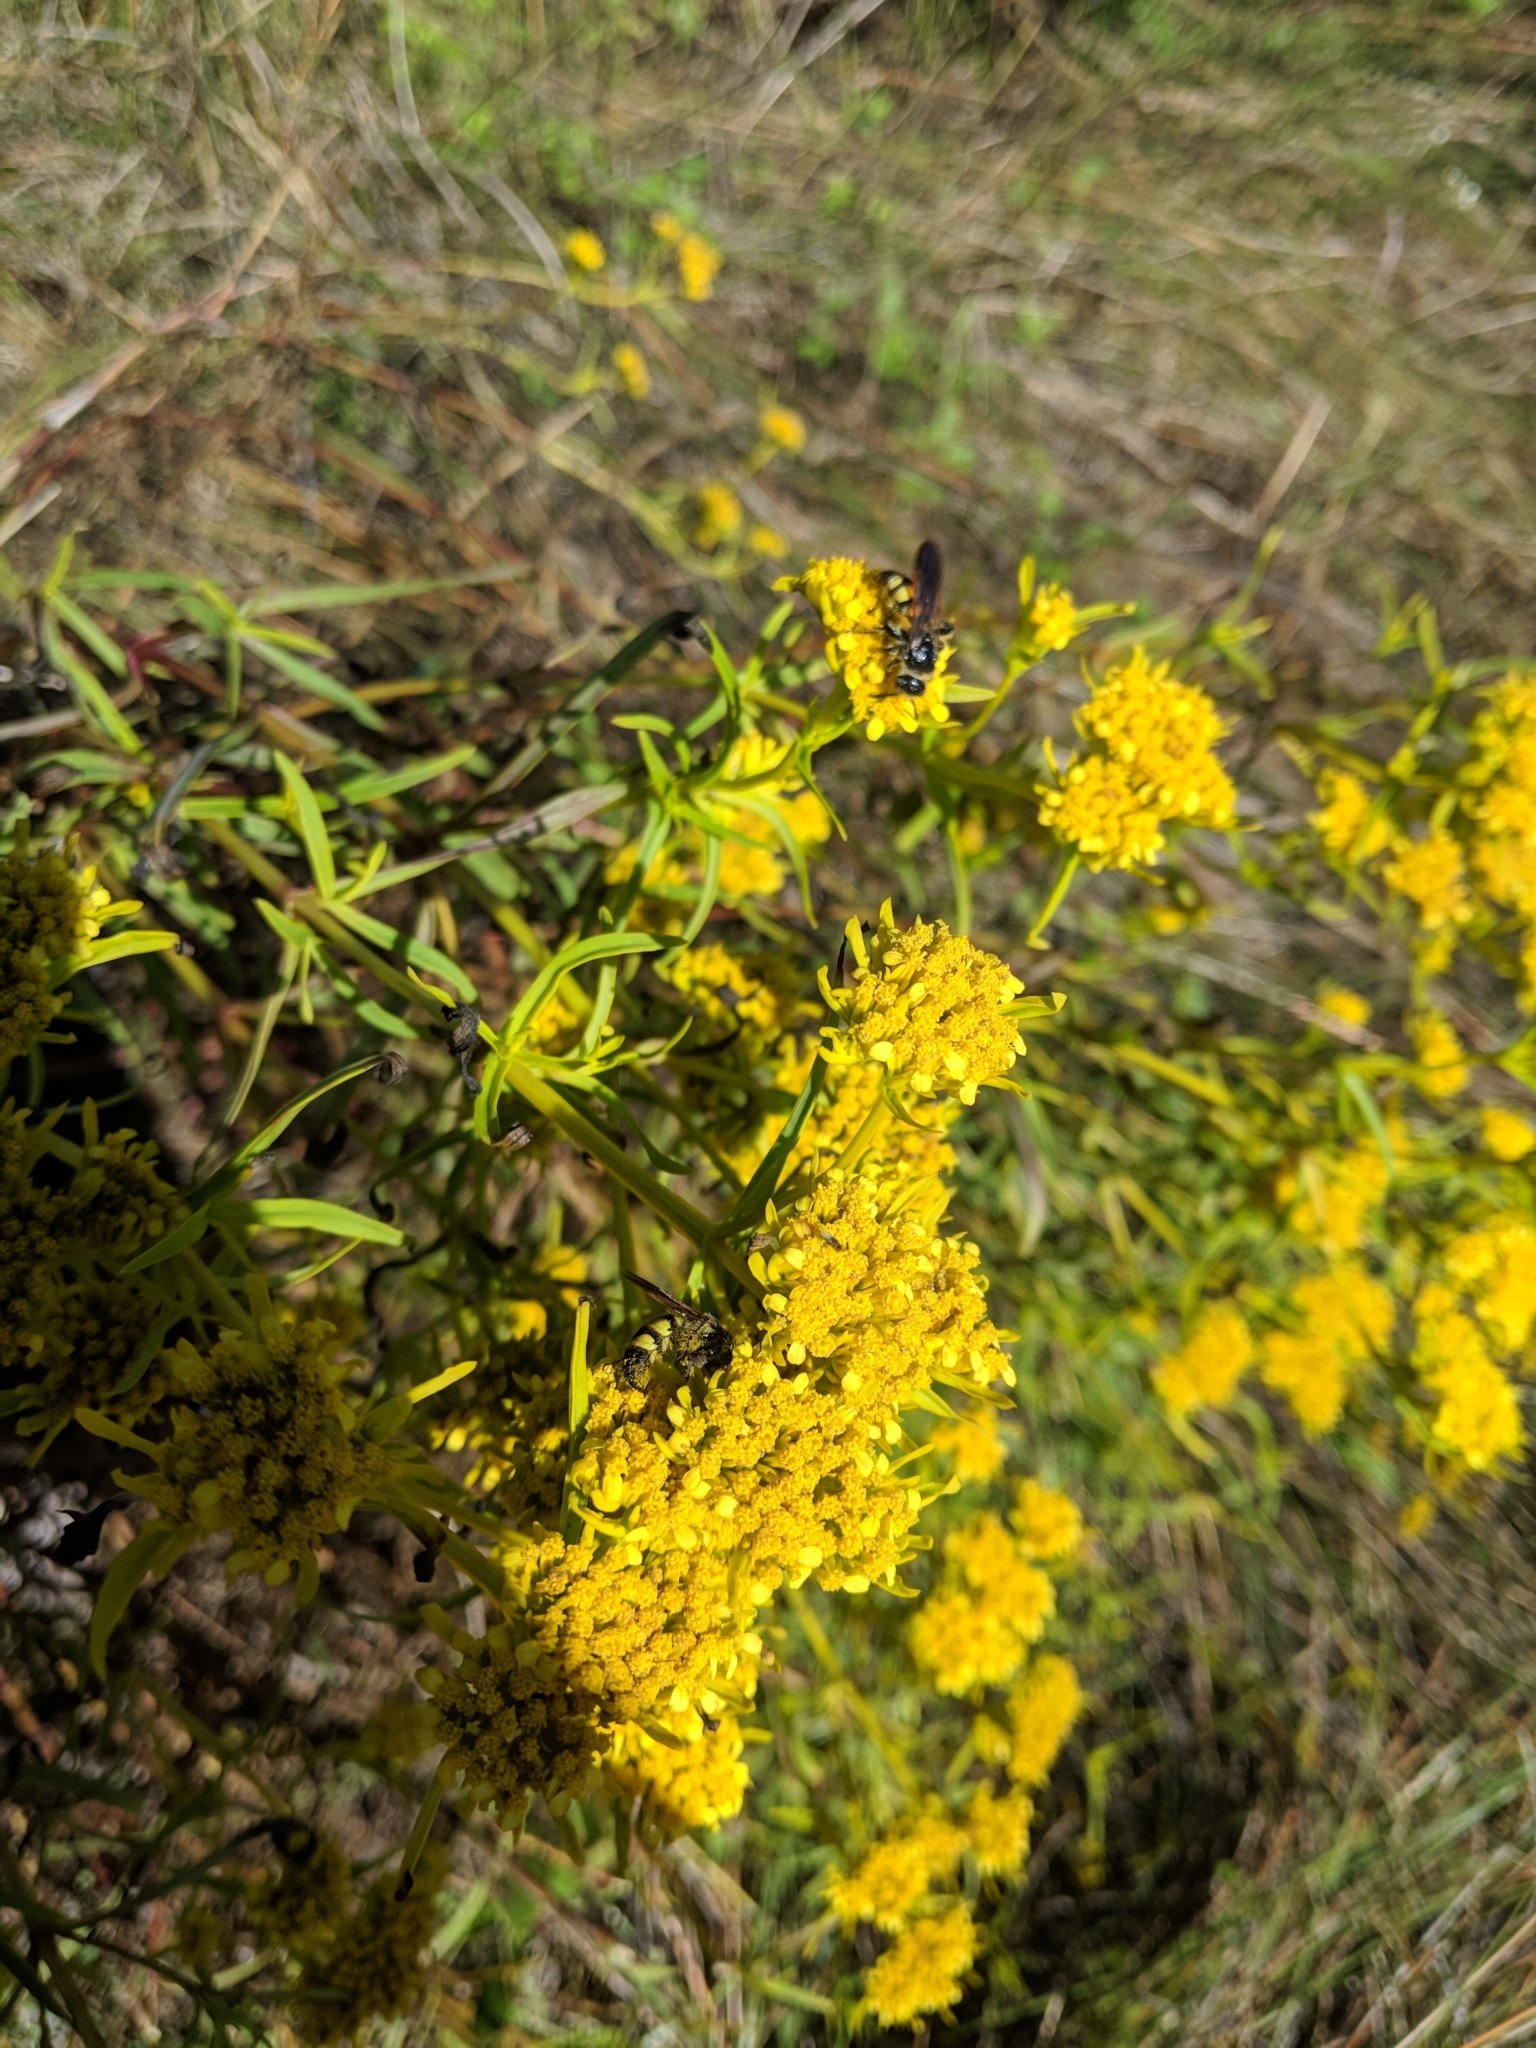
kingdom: Animalia
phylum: Arthropoda
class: Insecta
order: Hymenoptera
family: Scoliidae
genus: Dielis
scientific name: Dielis
